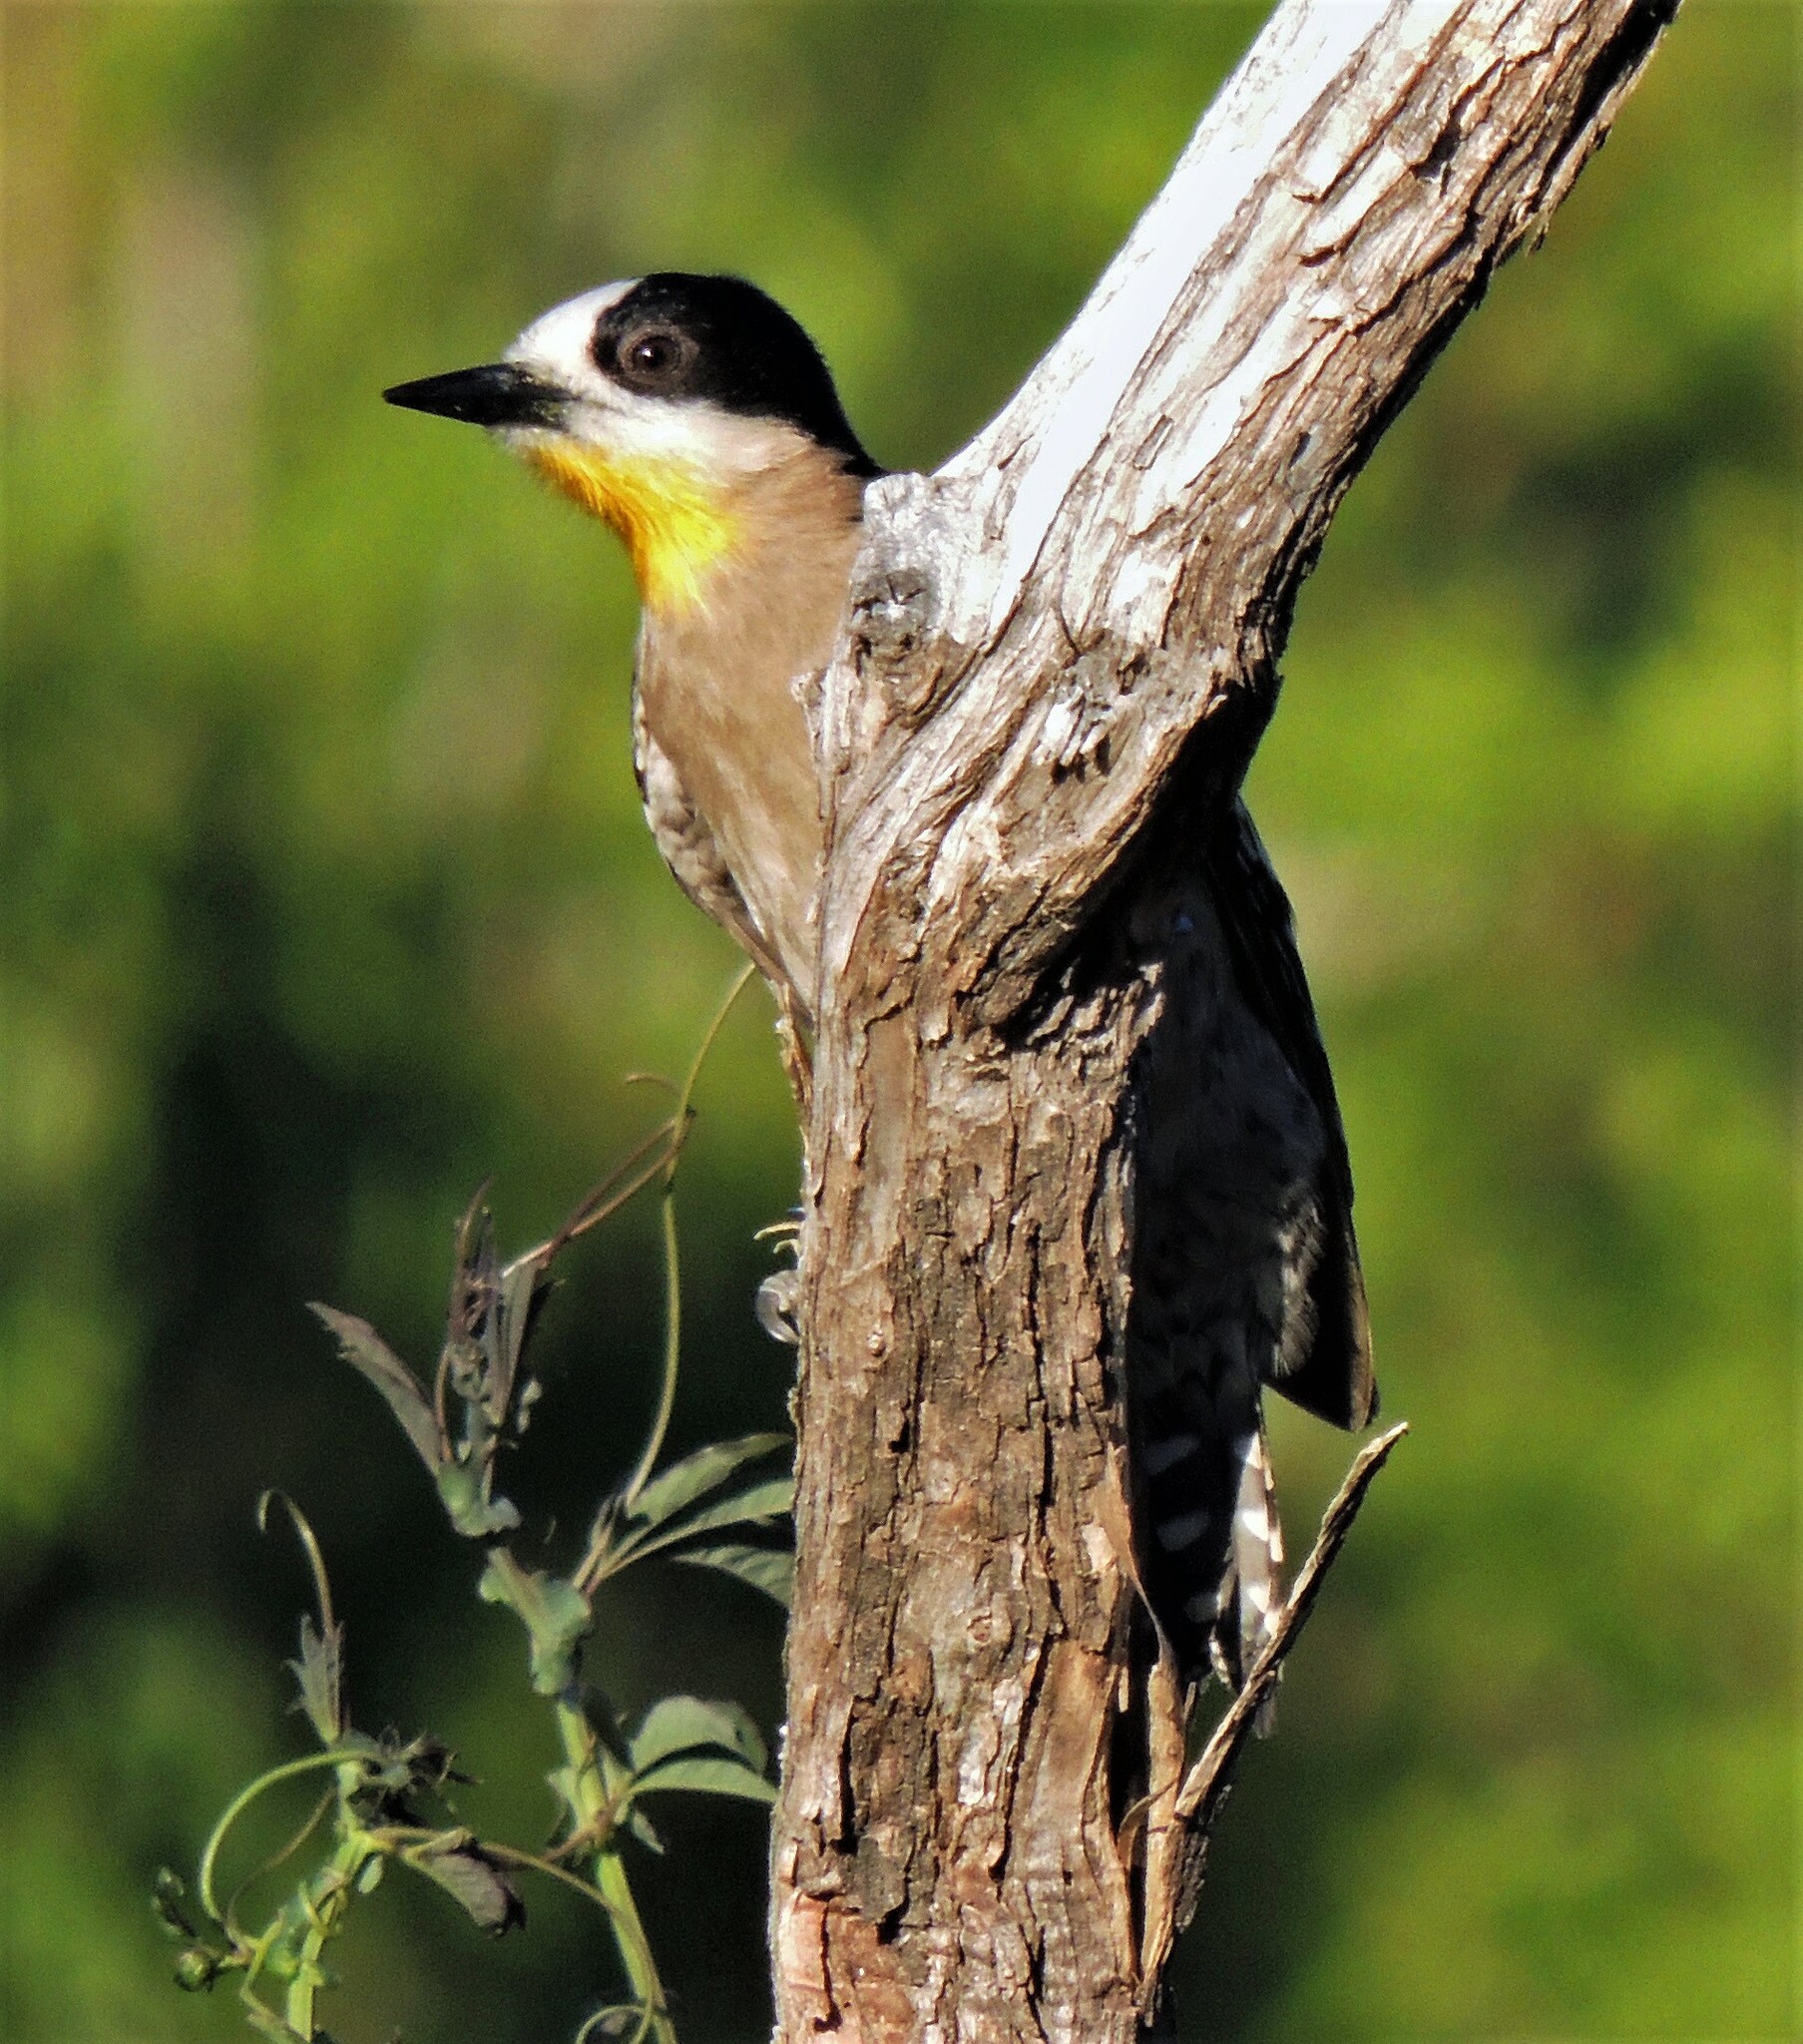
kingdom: Animalia
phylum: Chordata
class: Aves
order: Piciformes
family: Picidae
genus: Melanerpes
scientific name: Melanerpes cactorum
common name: White-fronted woodpecker
